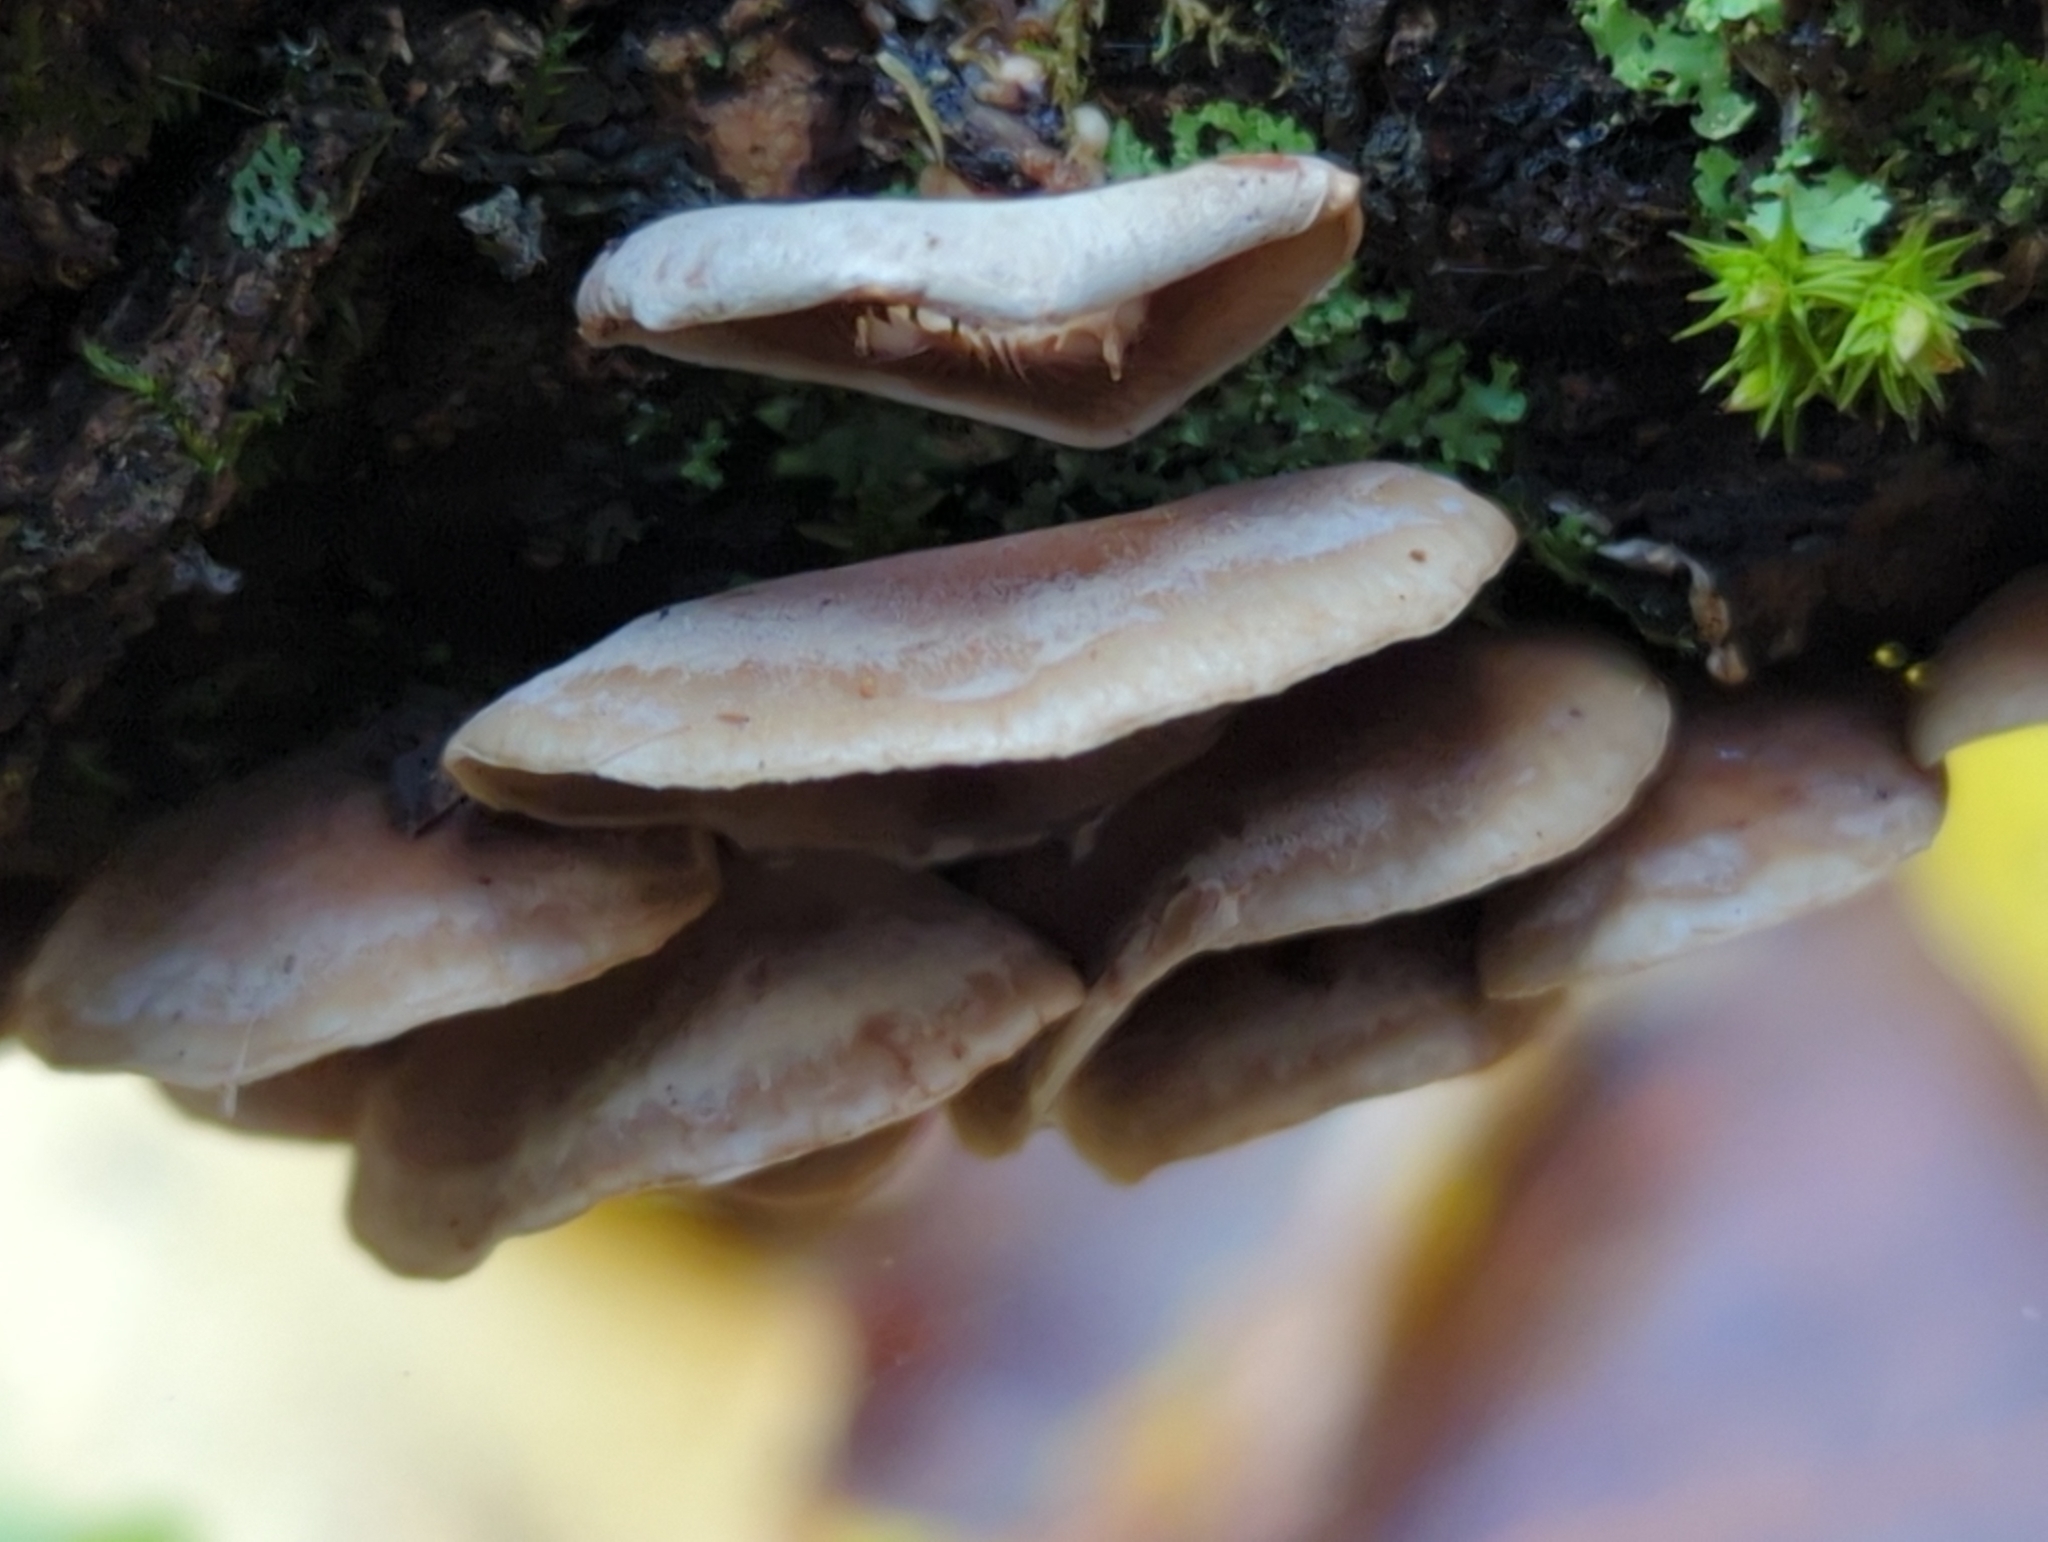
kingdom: Fungi
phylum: Basidiomycota
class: Agaricomycetes
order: Agaricales
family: Mycenaceae
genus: Panellus
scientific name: Panellus ringens
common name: Winter oysterling
